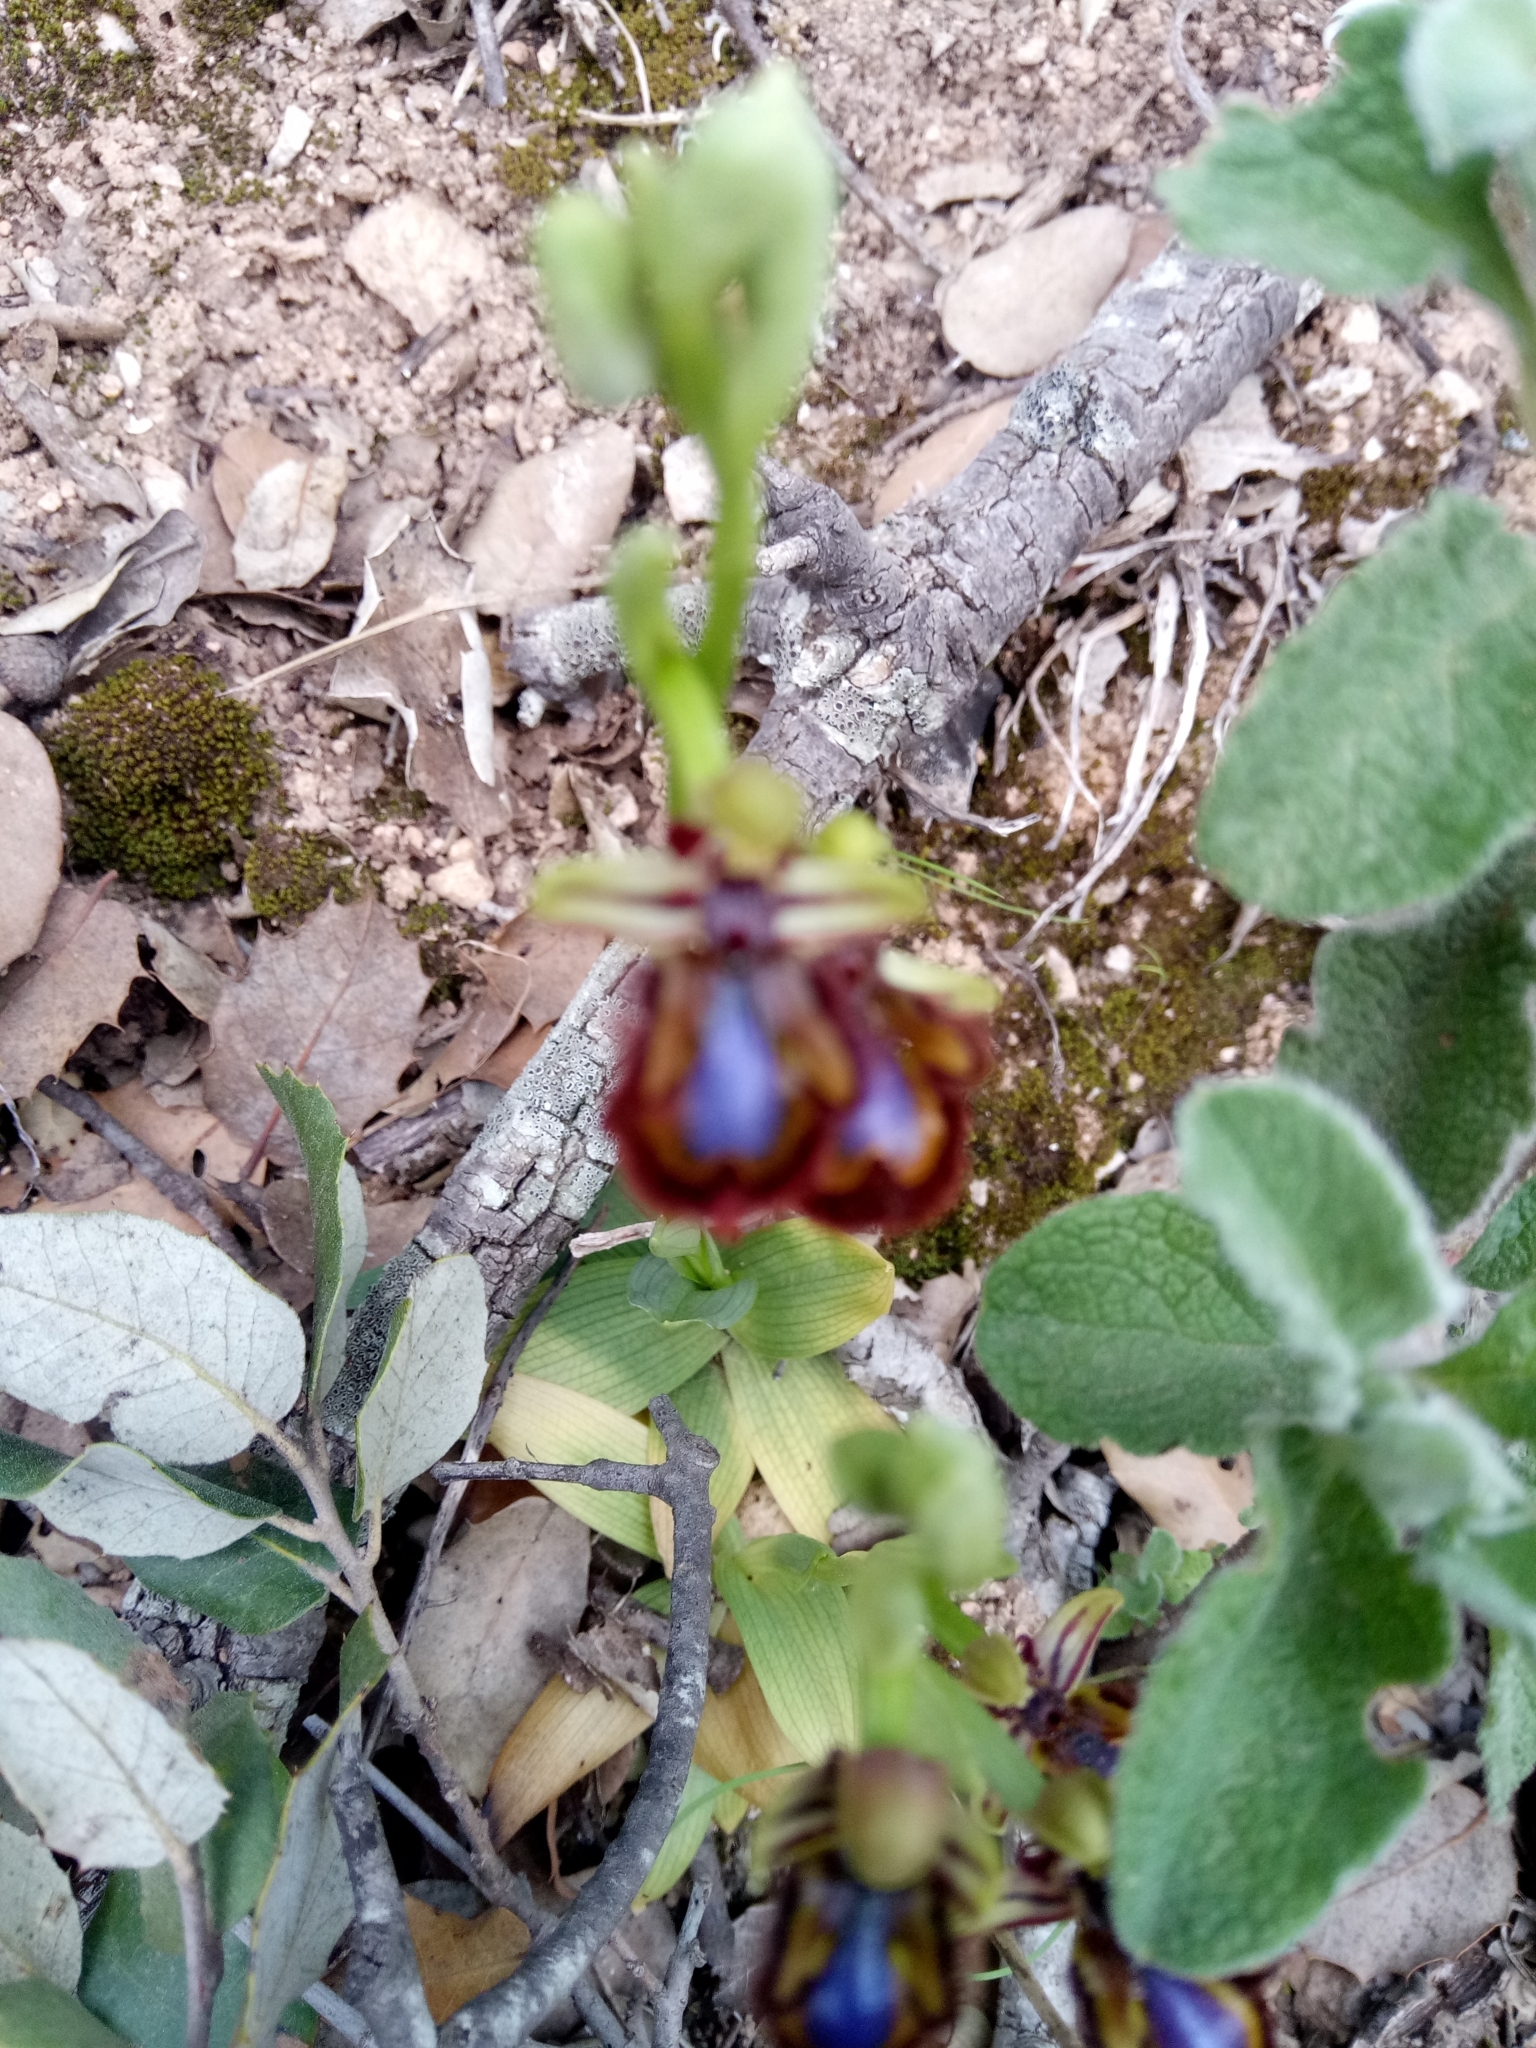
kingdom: Plantae
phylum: Tracheophyta
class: Liliopsida
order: Asparagales
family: Orchidaceae
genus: Ophrys
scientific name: Ophrys speculum
